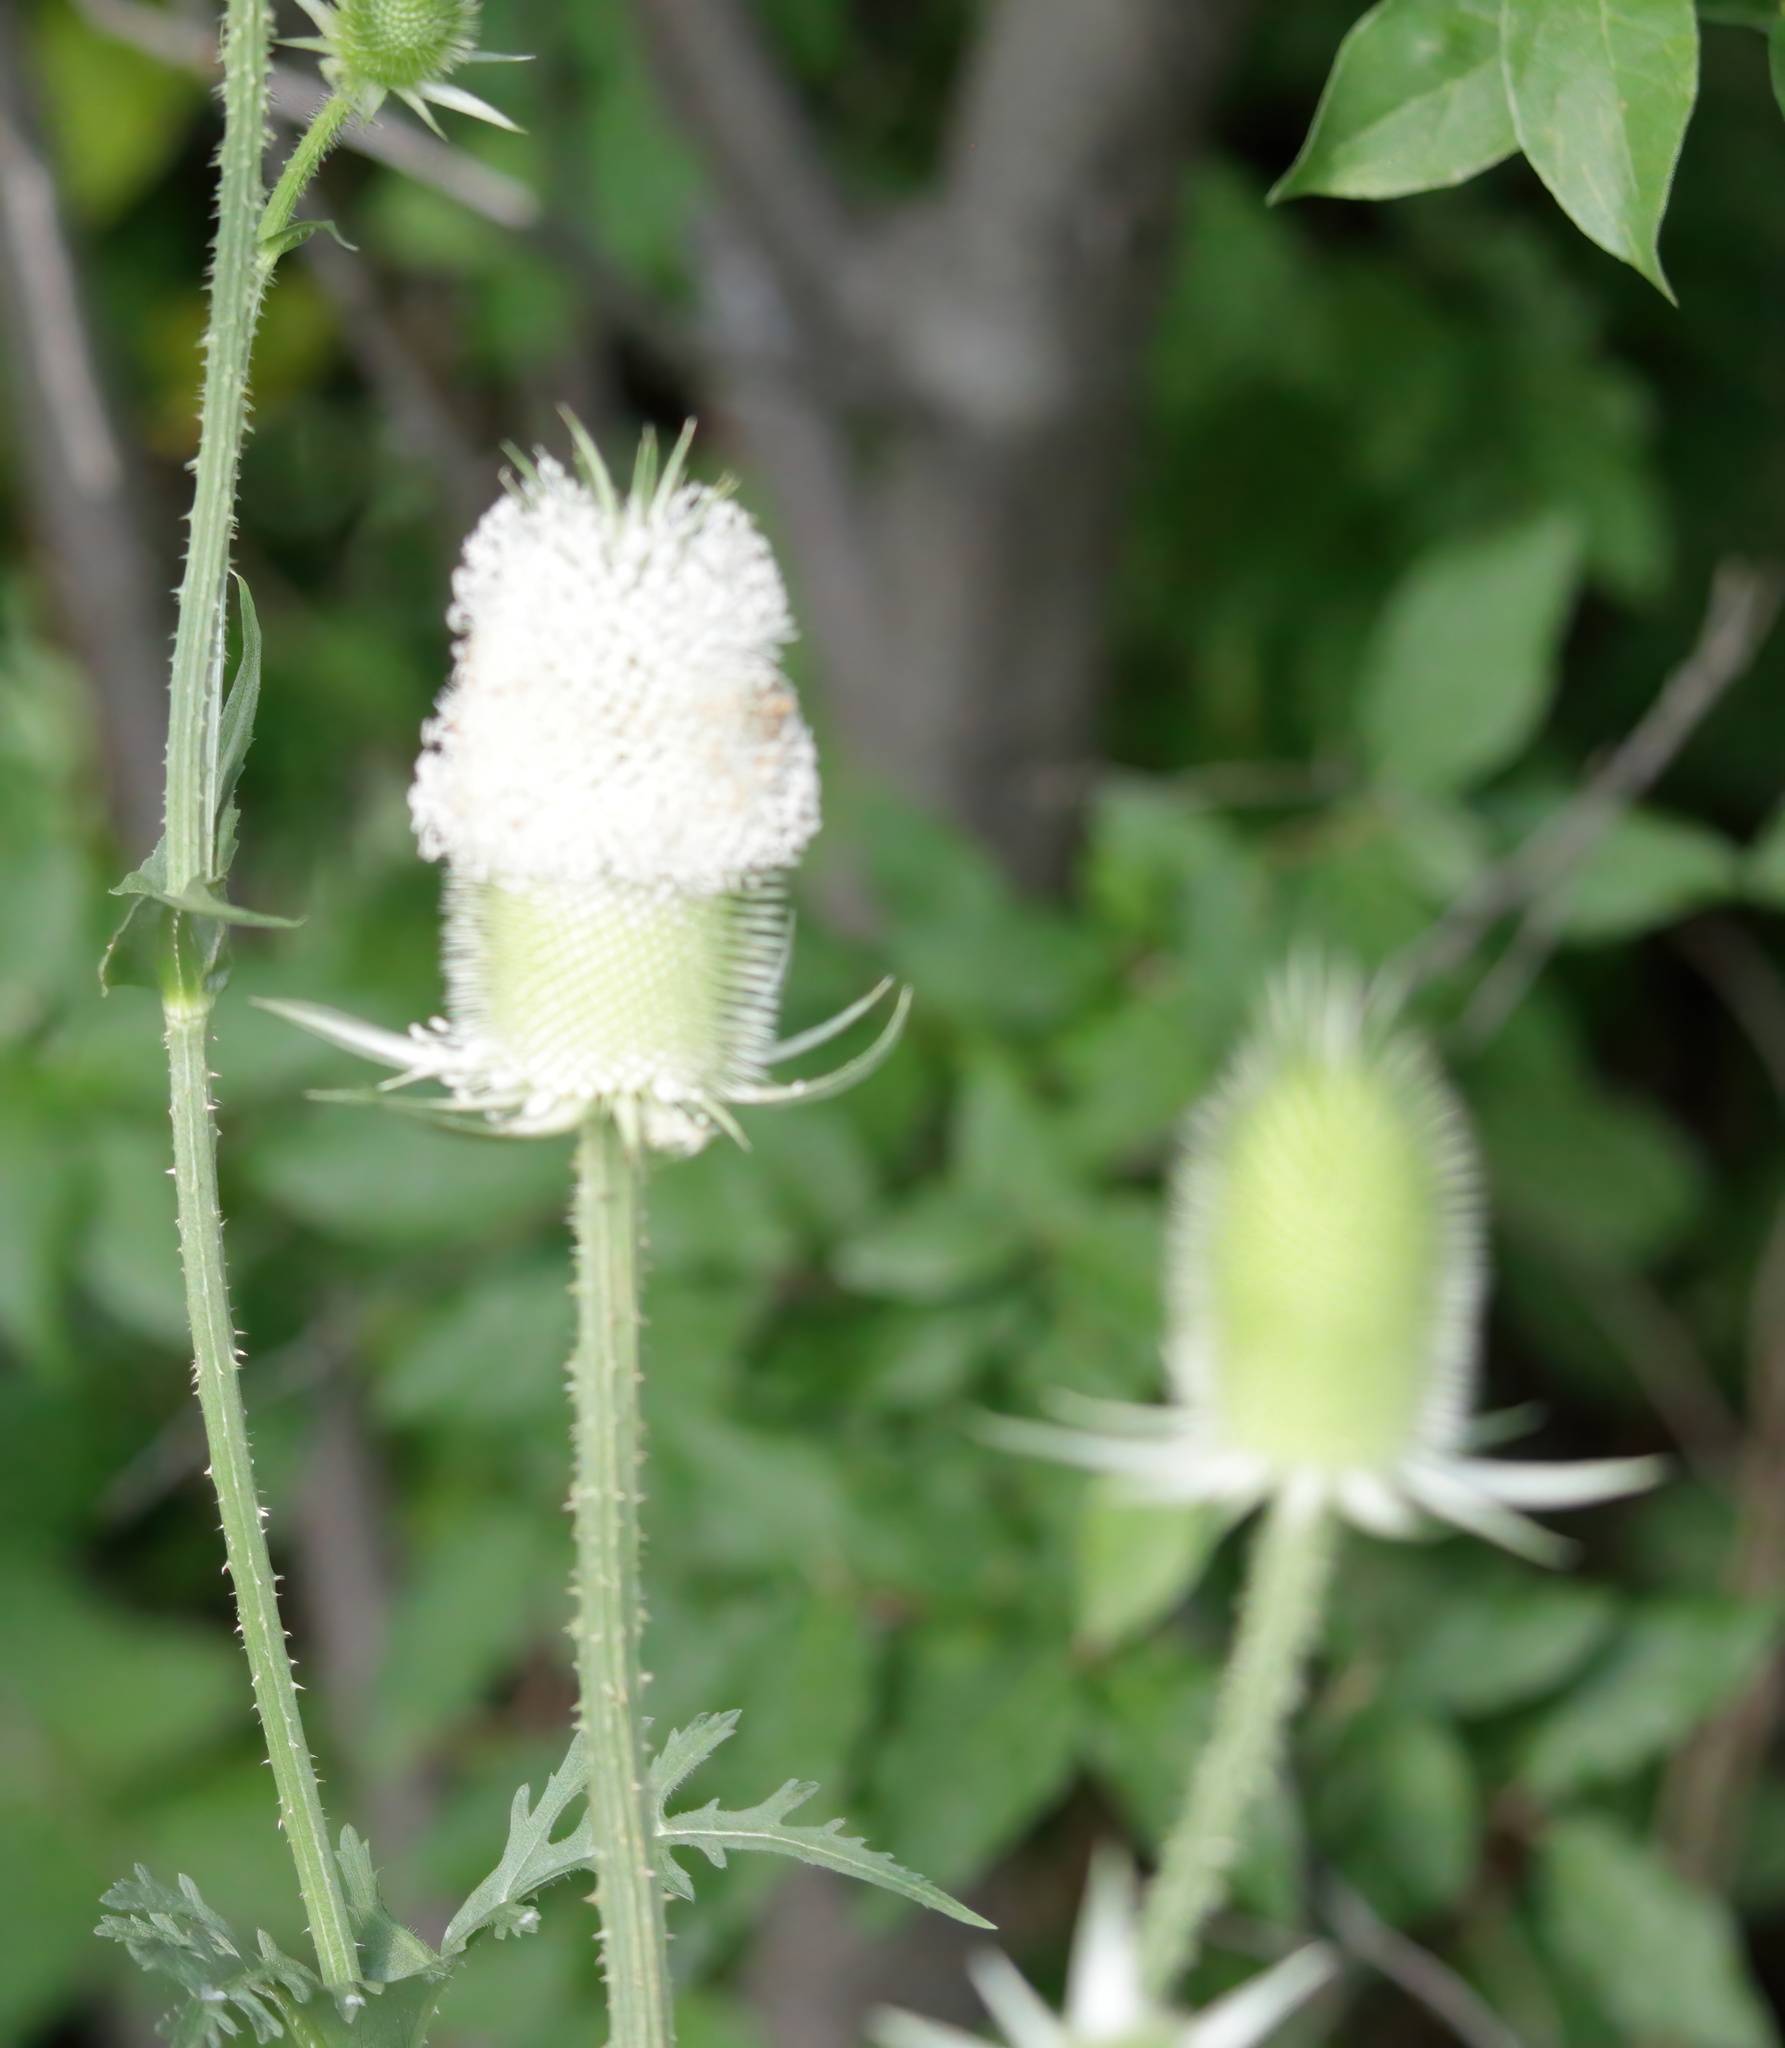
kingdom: Plantae
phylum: Tracheophyta
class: Magnoliopsida
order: Dipsacales
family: Caprifoliaceae
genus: Dipsacus
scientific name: Dipsacus laciniatus
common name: Cut-leaved teasel
